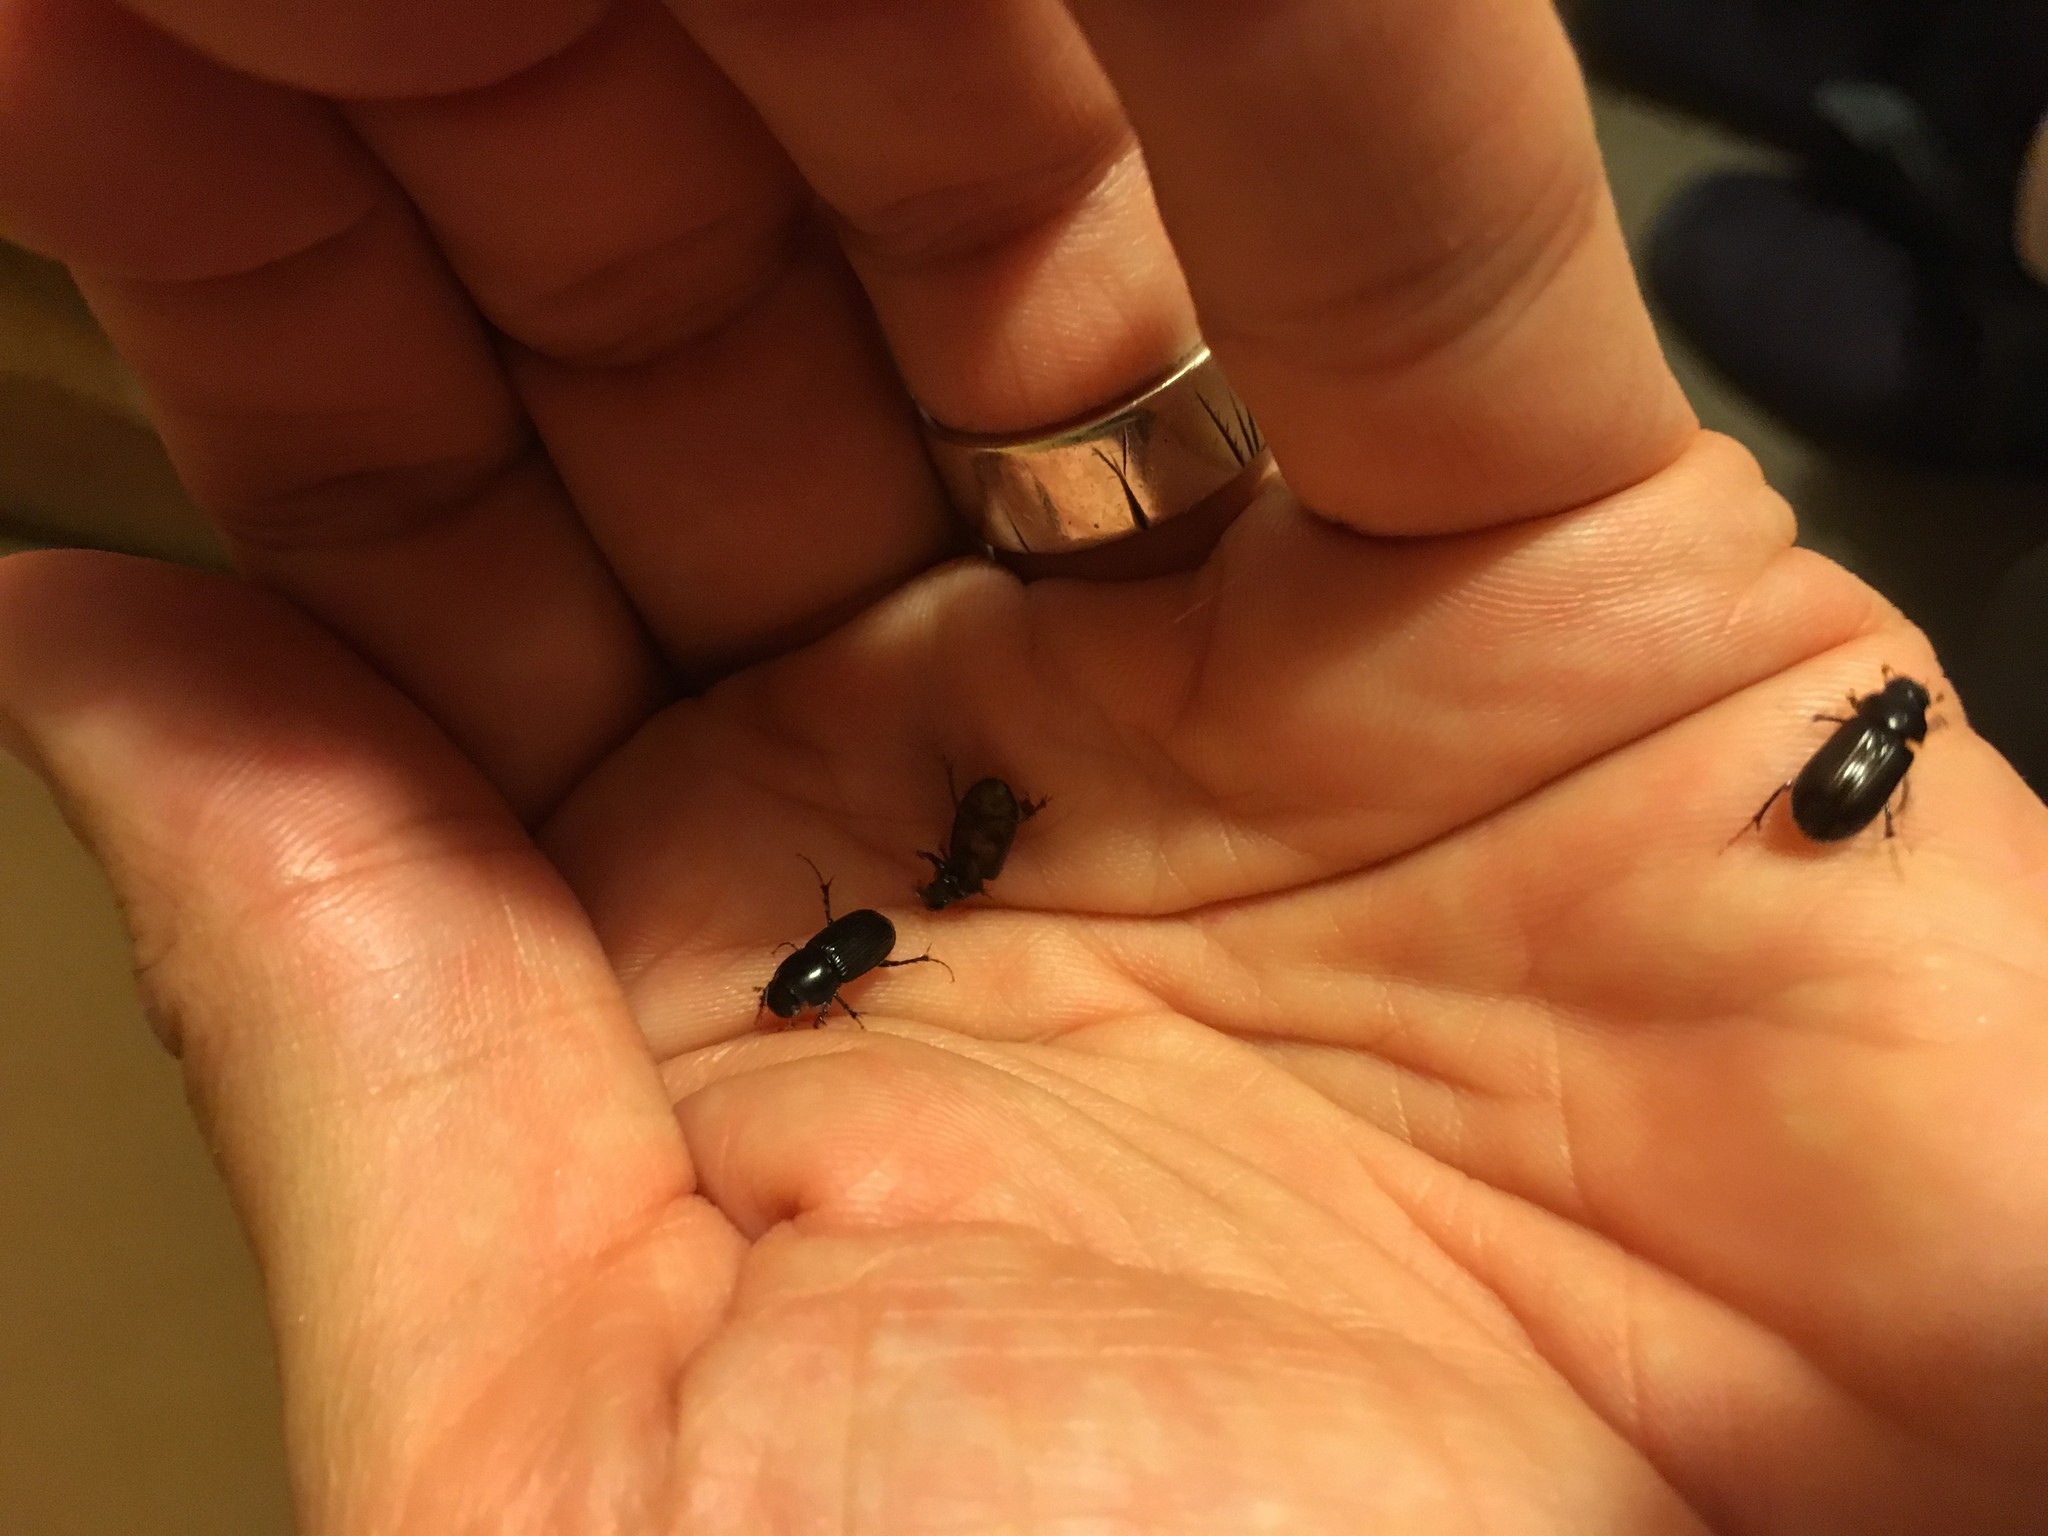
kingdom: Animalia
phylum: Arthropoda
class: Insecta
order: Coleoptera
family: Scarabaeidae
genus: Acrossidius
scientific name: Acrossidius tasmaniae
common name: Black-headed pasture cockchafer
